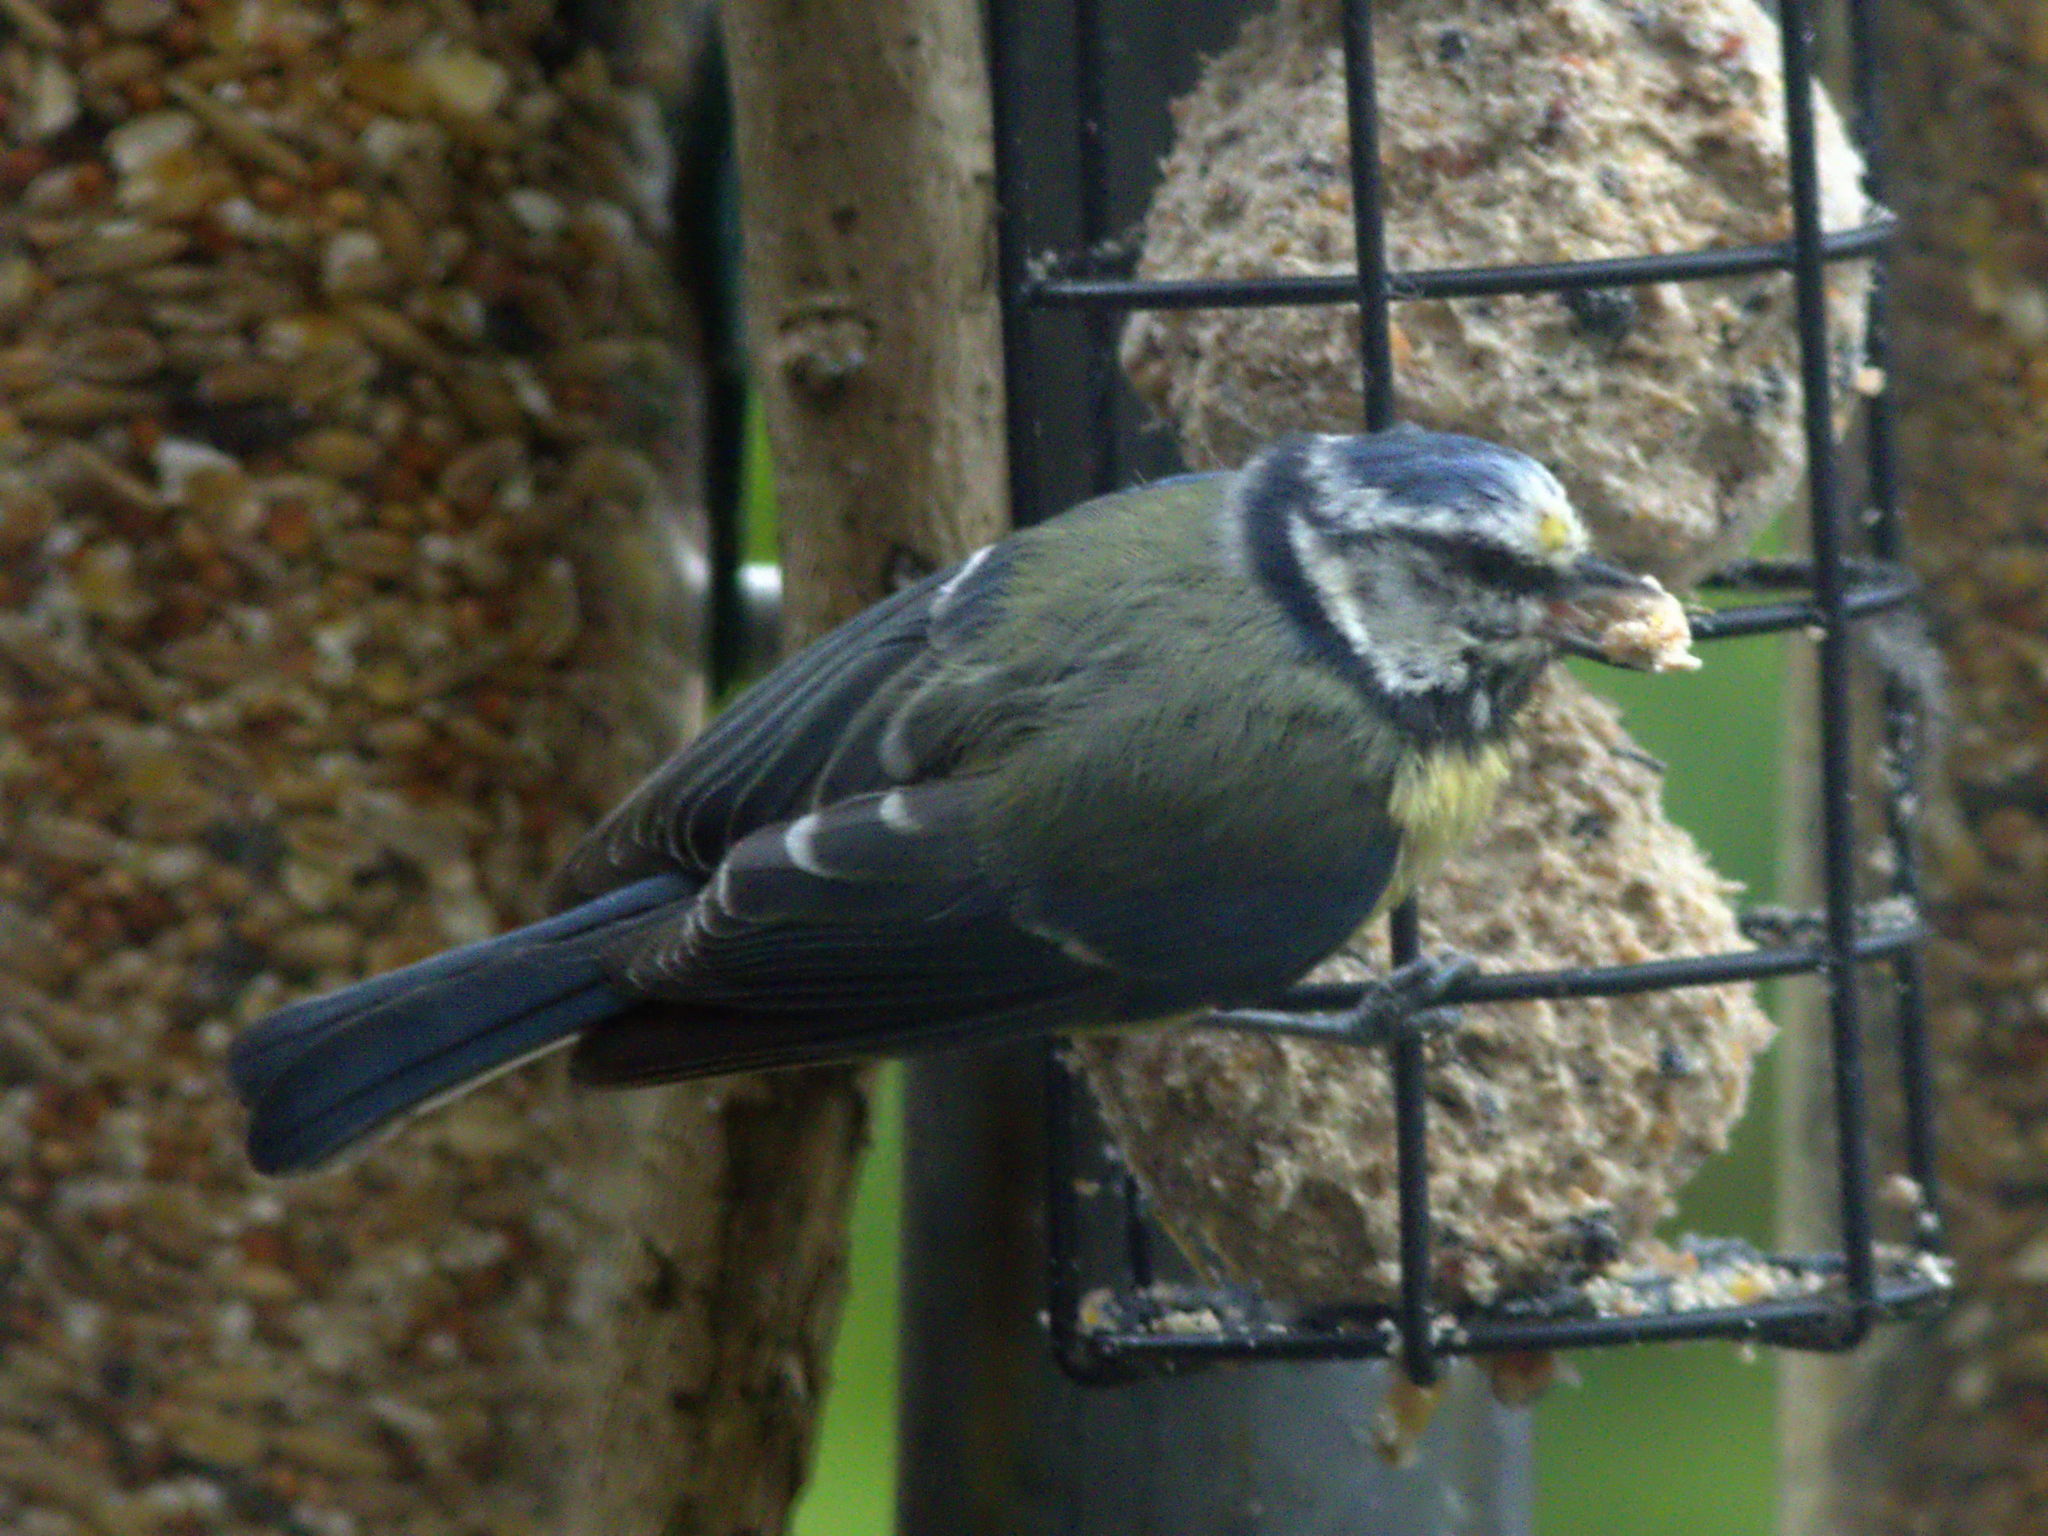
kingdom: Animalia
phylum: Chordata
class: Aves
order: Passeriformes
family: Paridae
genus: Cyanistes
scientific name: Cyanistes caeruleus
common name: Eurasian blue tit
